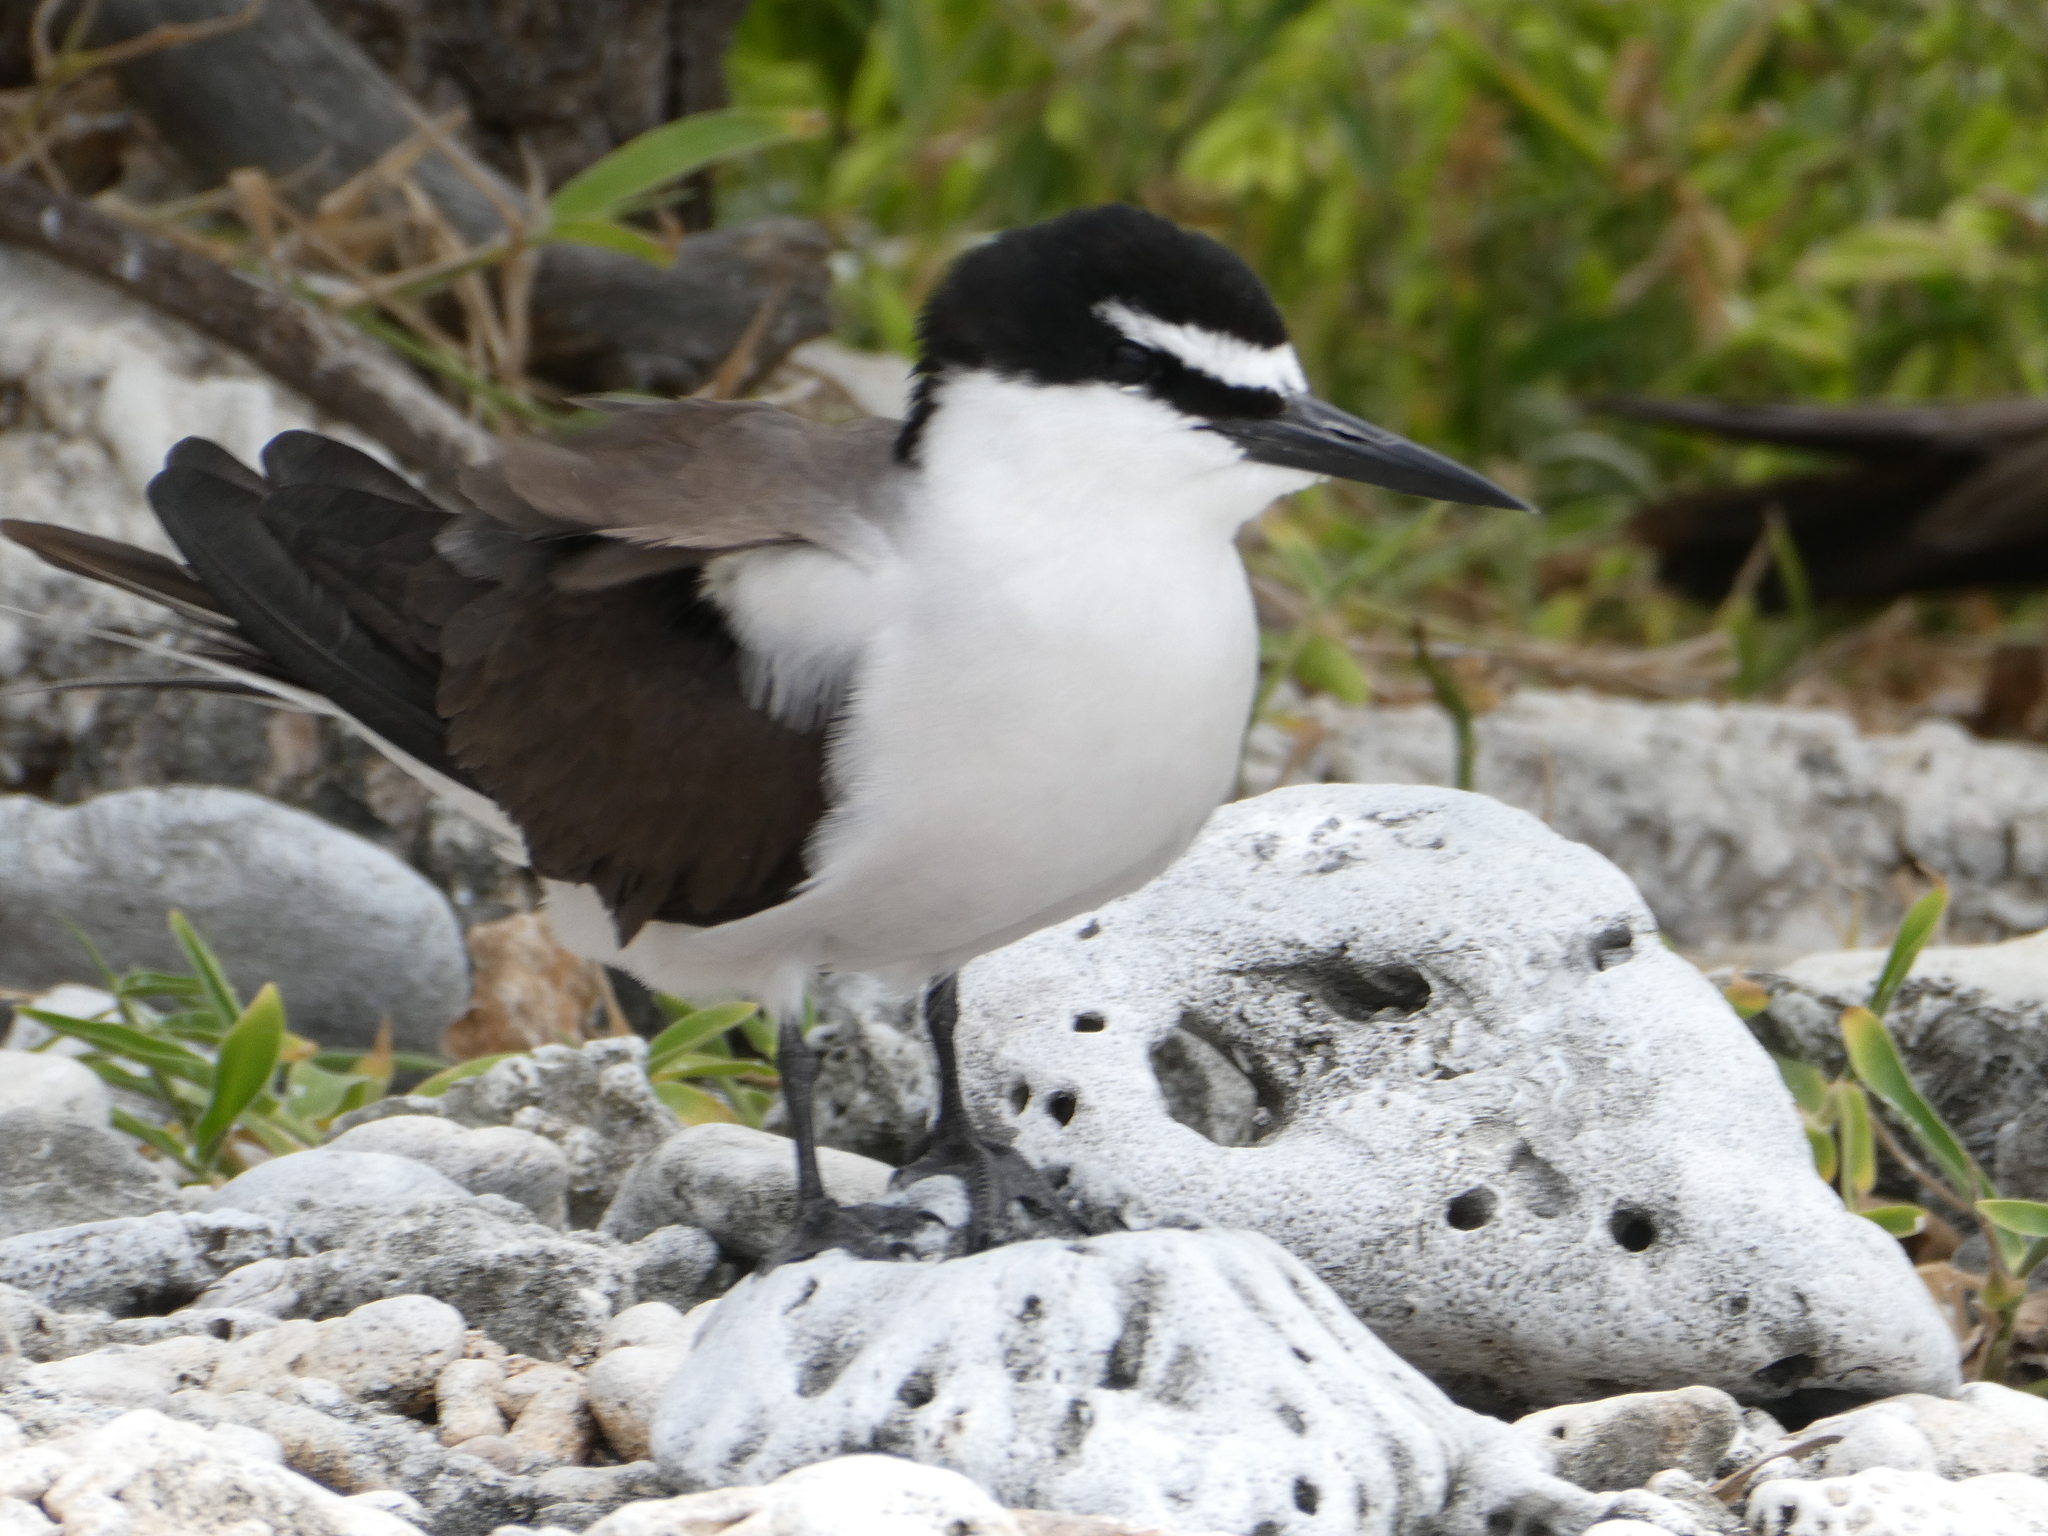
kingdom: Animalia
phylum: Chordata
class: Aves
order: Charadriiformes
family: Laridae
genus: Onychoprion
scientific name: Onychoprion anaethetus
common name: Bridled tern
